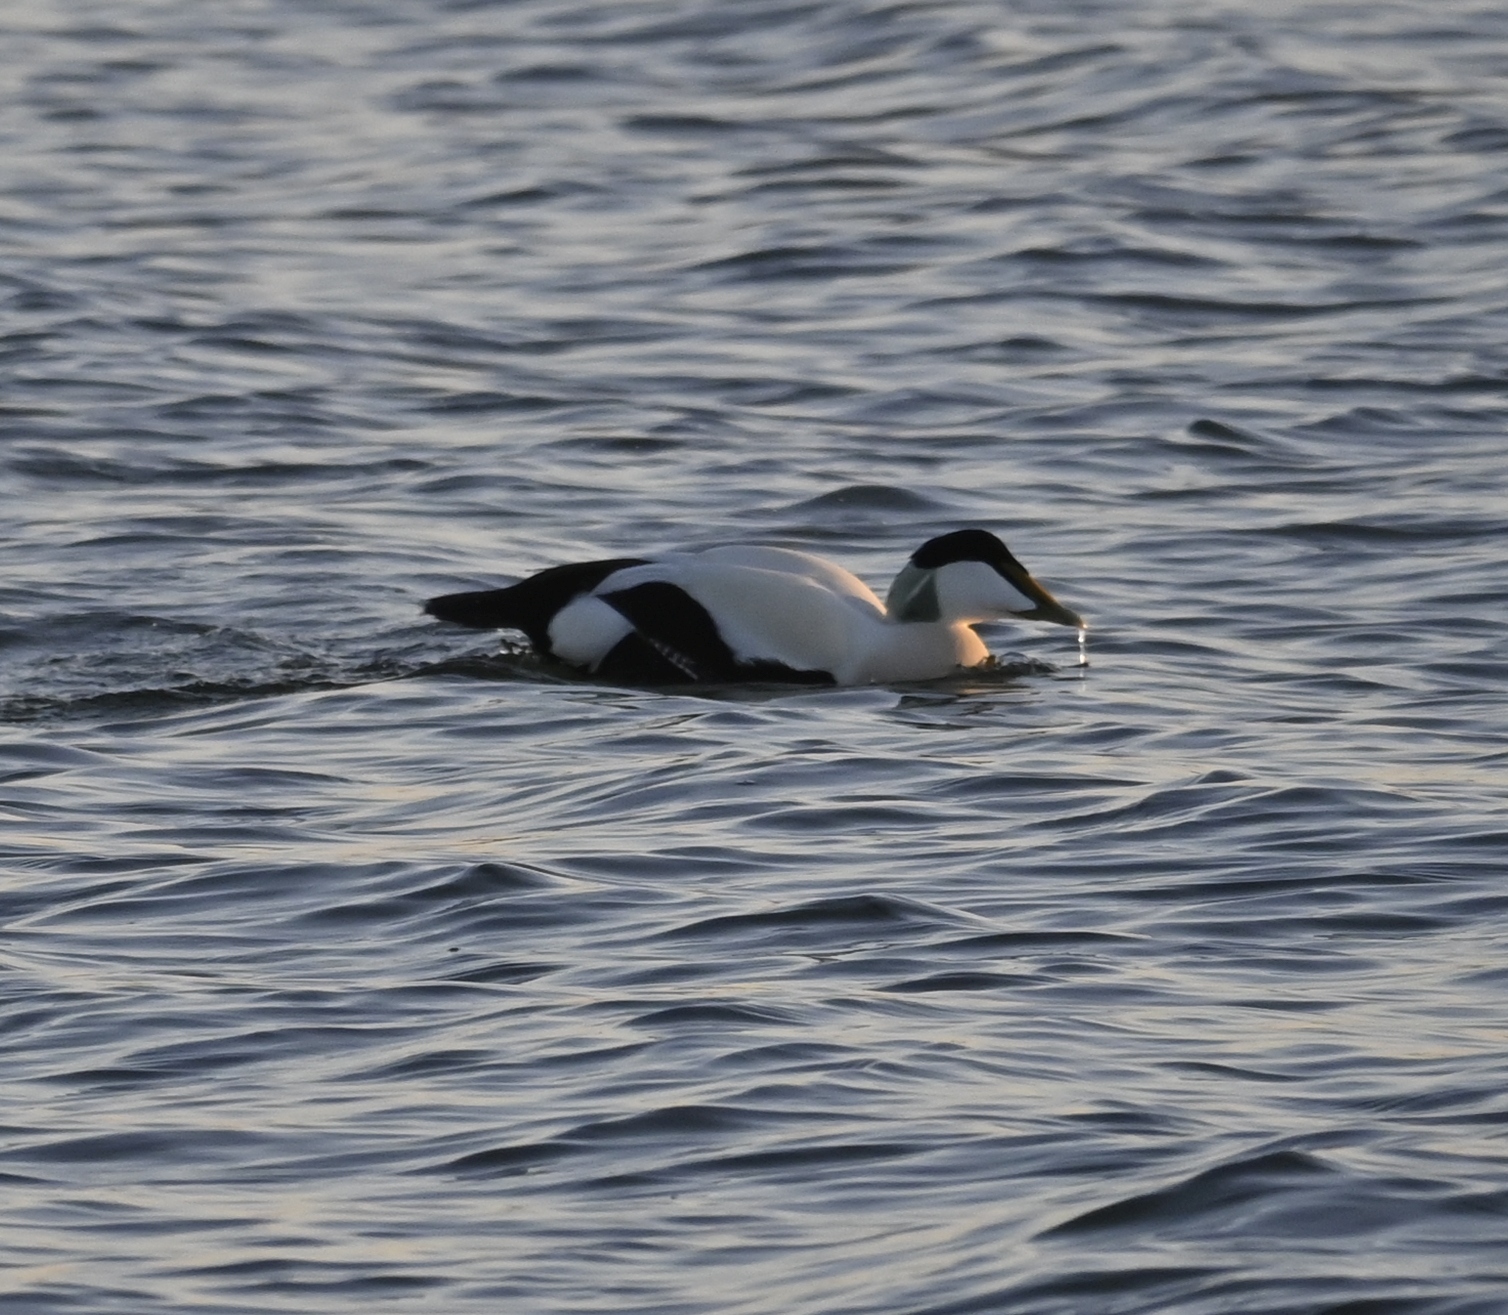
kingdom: Animalia
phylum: Chordata
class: Aves
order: Anseriformes
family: Anatidae
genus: Somateria
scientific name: Somateria mollissima
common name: Common eider
